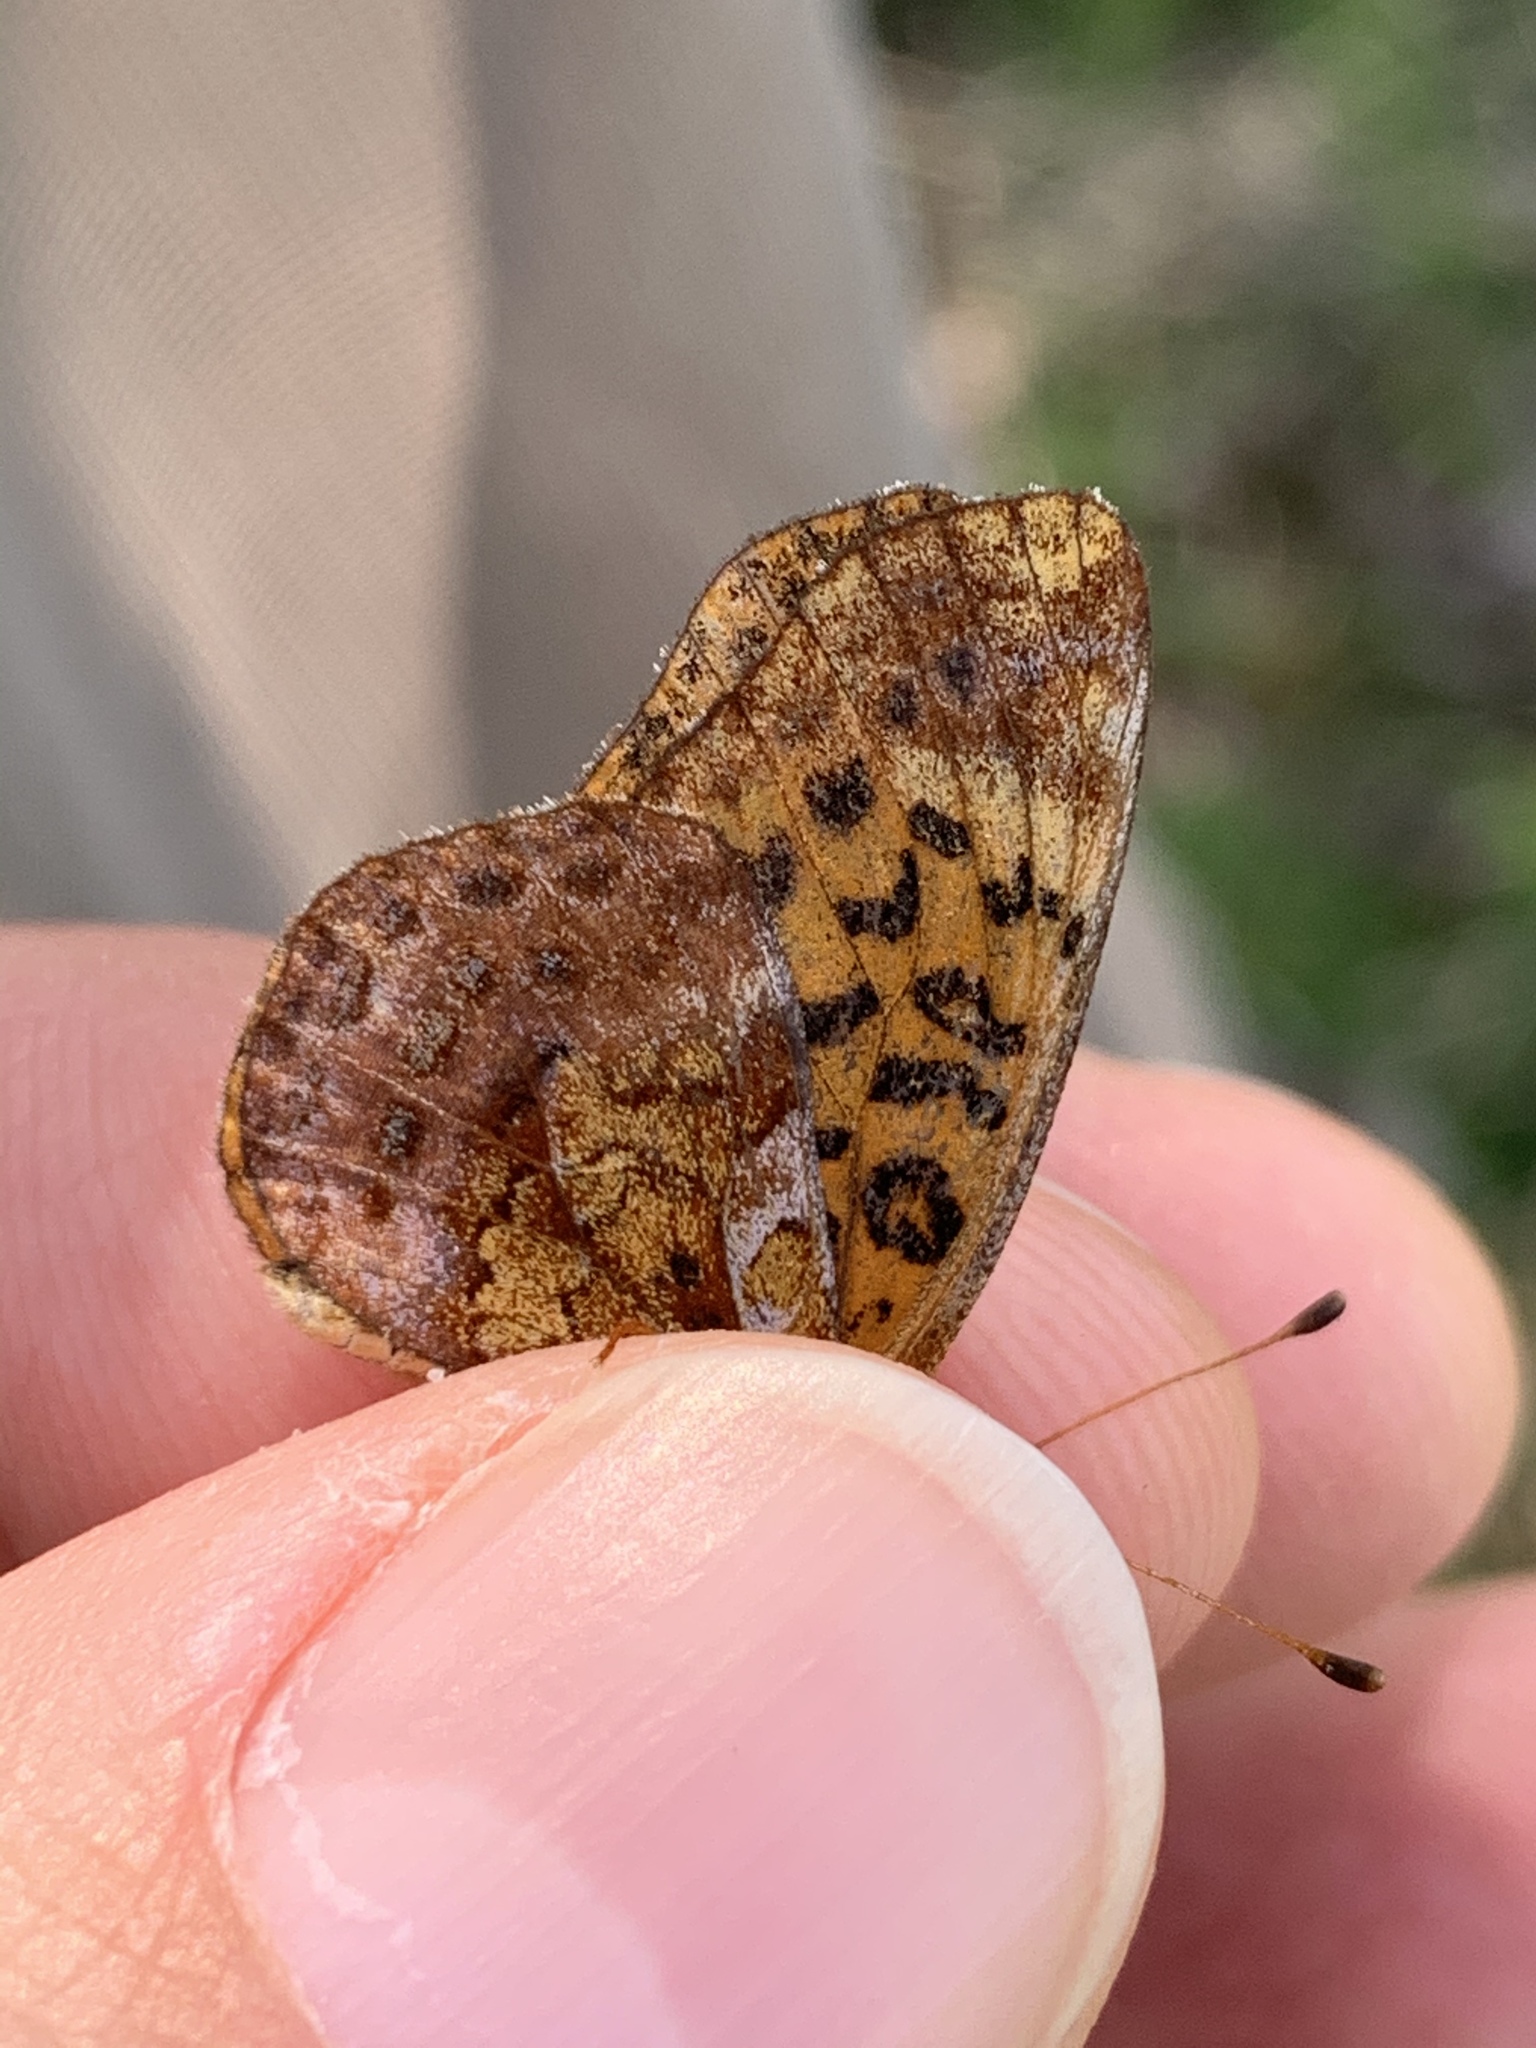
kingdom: Animalia
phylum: Arthropoda
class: Insecta
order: Lepidoptera
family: Nymphalidae
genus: Clossiana
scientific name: Clossiana toddi
